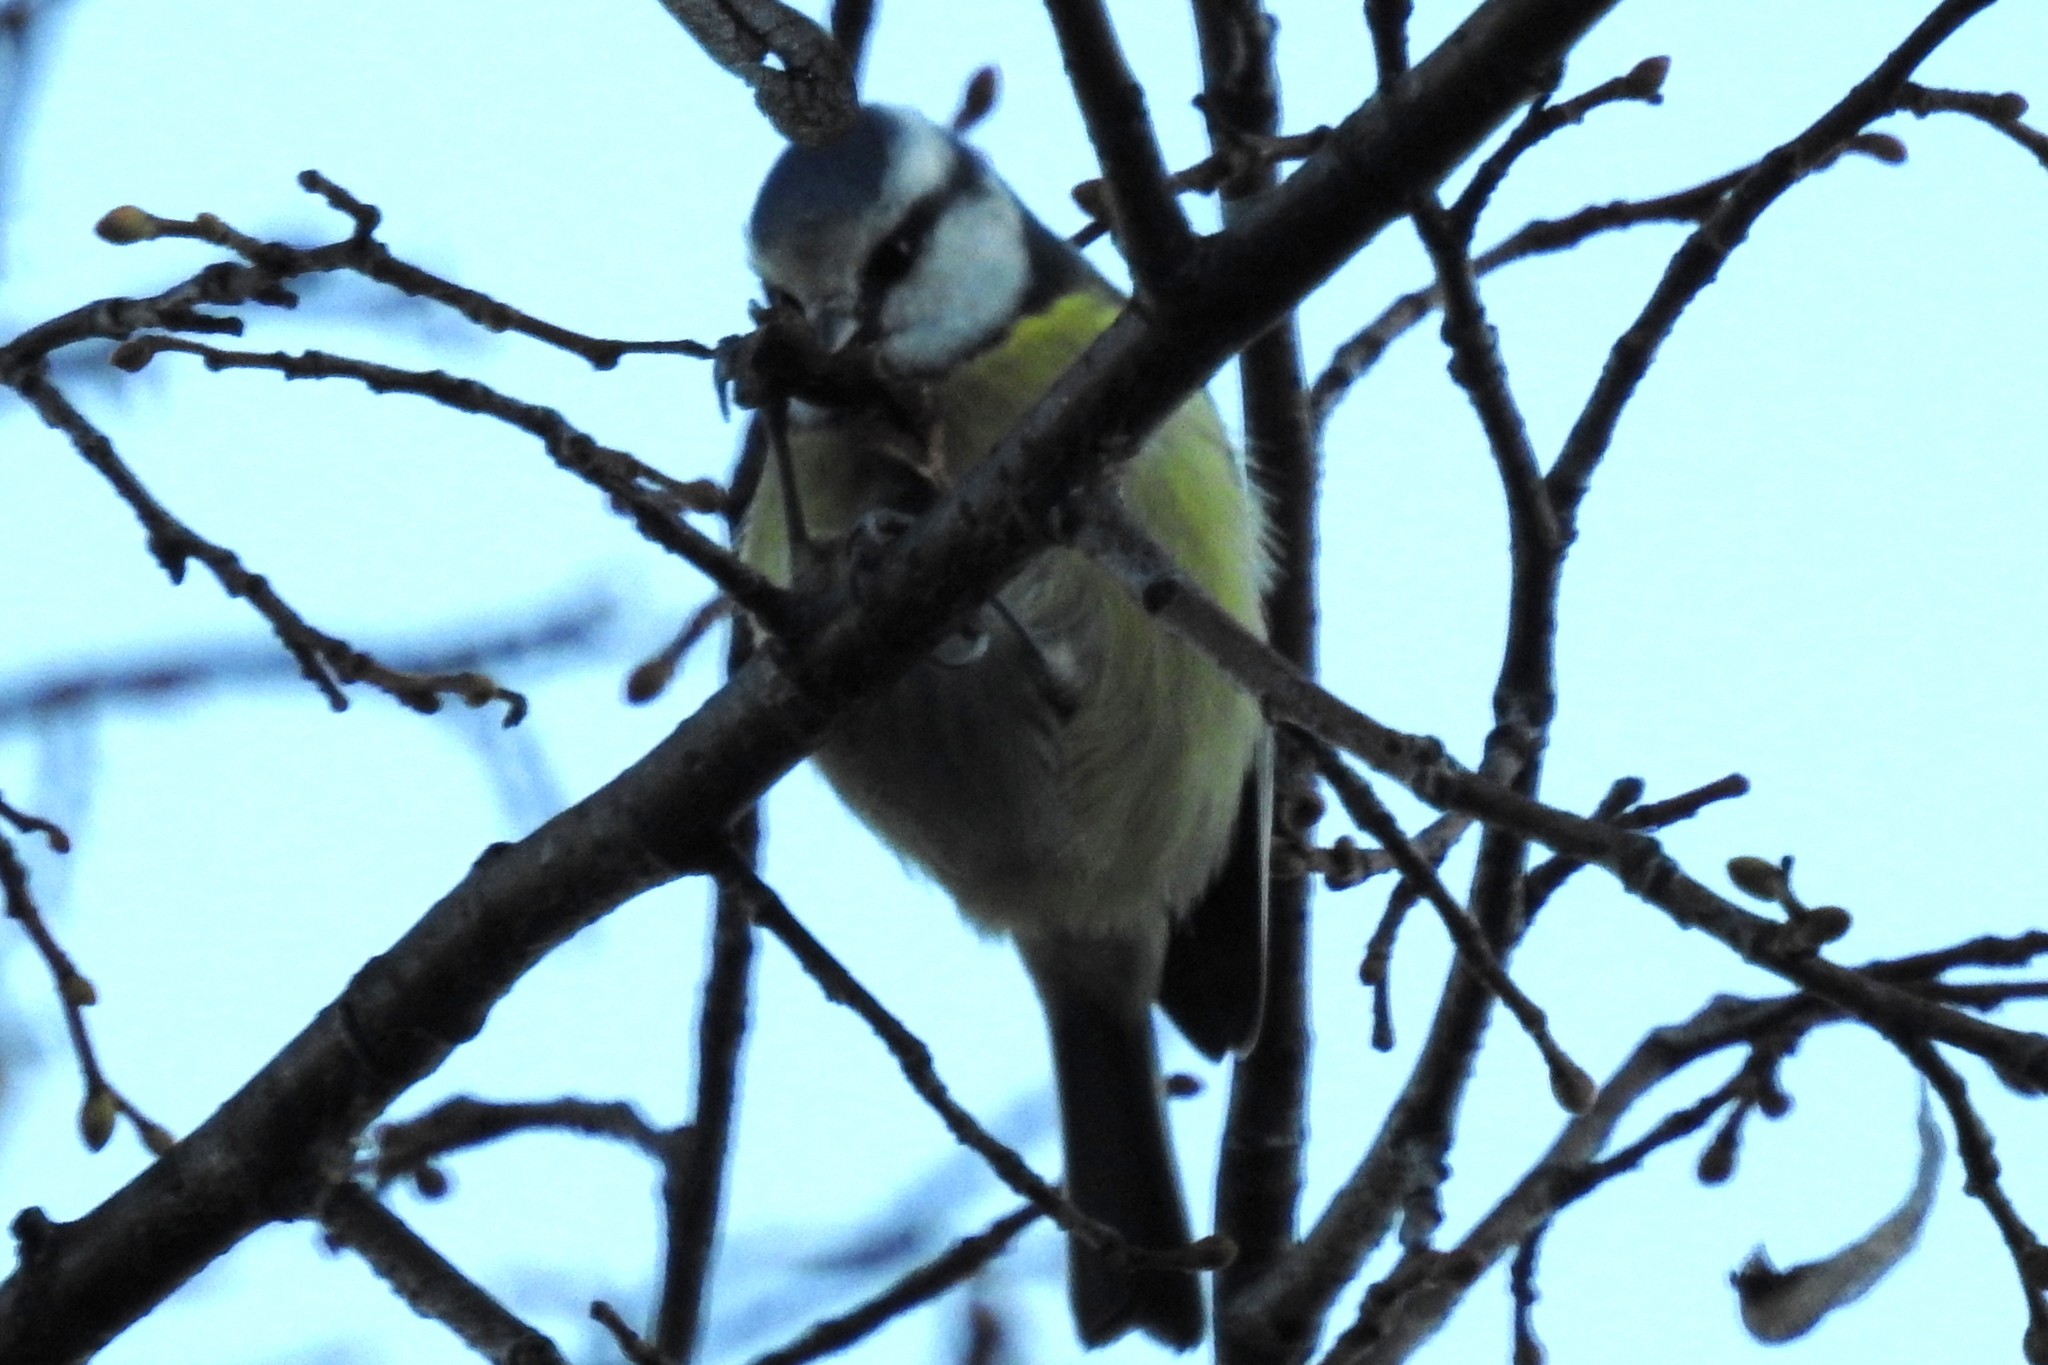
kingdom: Animalia
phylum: Chordata
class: Aves
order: Passeriformes
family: Paridae
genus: Cyanistes
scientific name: Cyanistes caeruleus
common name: Eurasian blue tit
